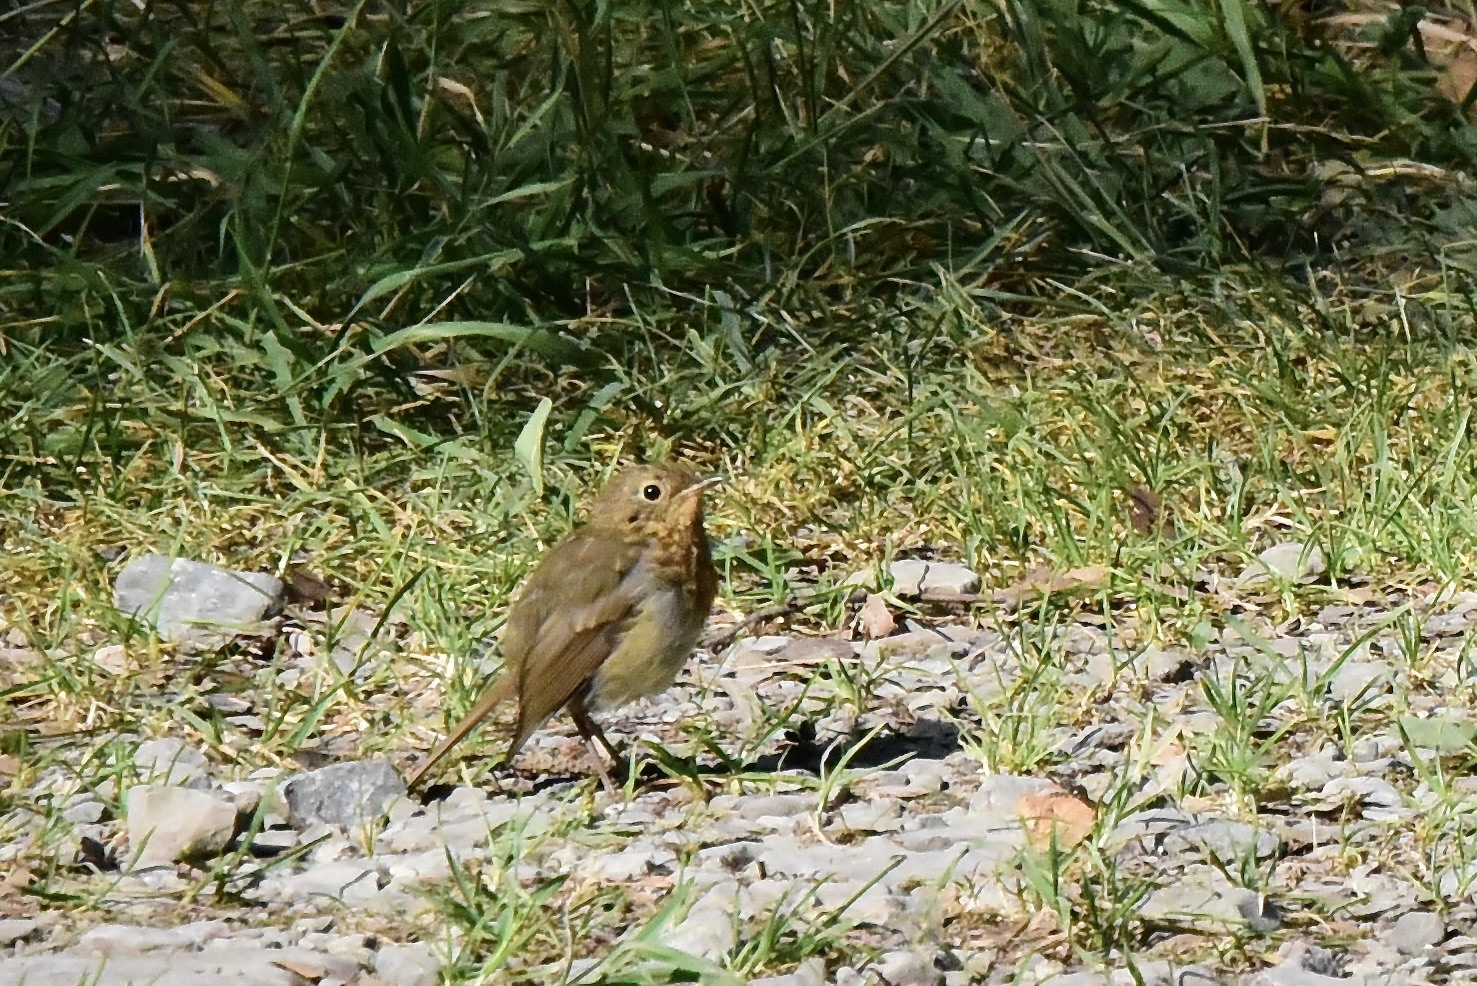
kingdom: Animalia
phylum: Chordata
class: Aves
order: Passeriformes
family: Muscicapidae
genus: Erithacus
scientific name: Erithacus rubecula
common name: European robin
